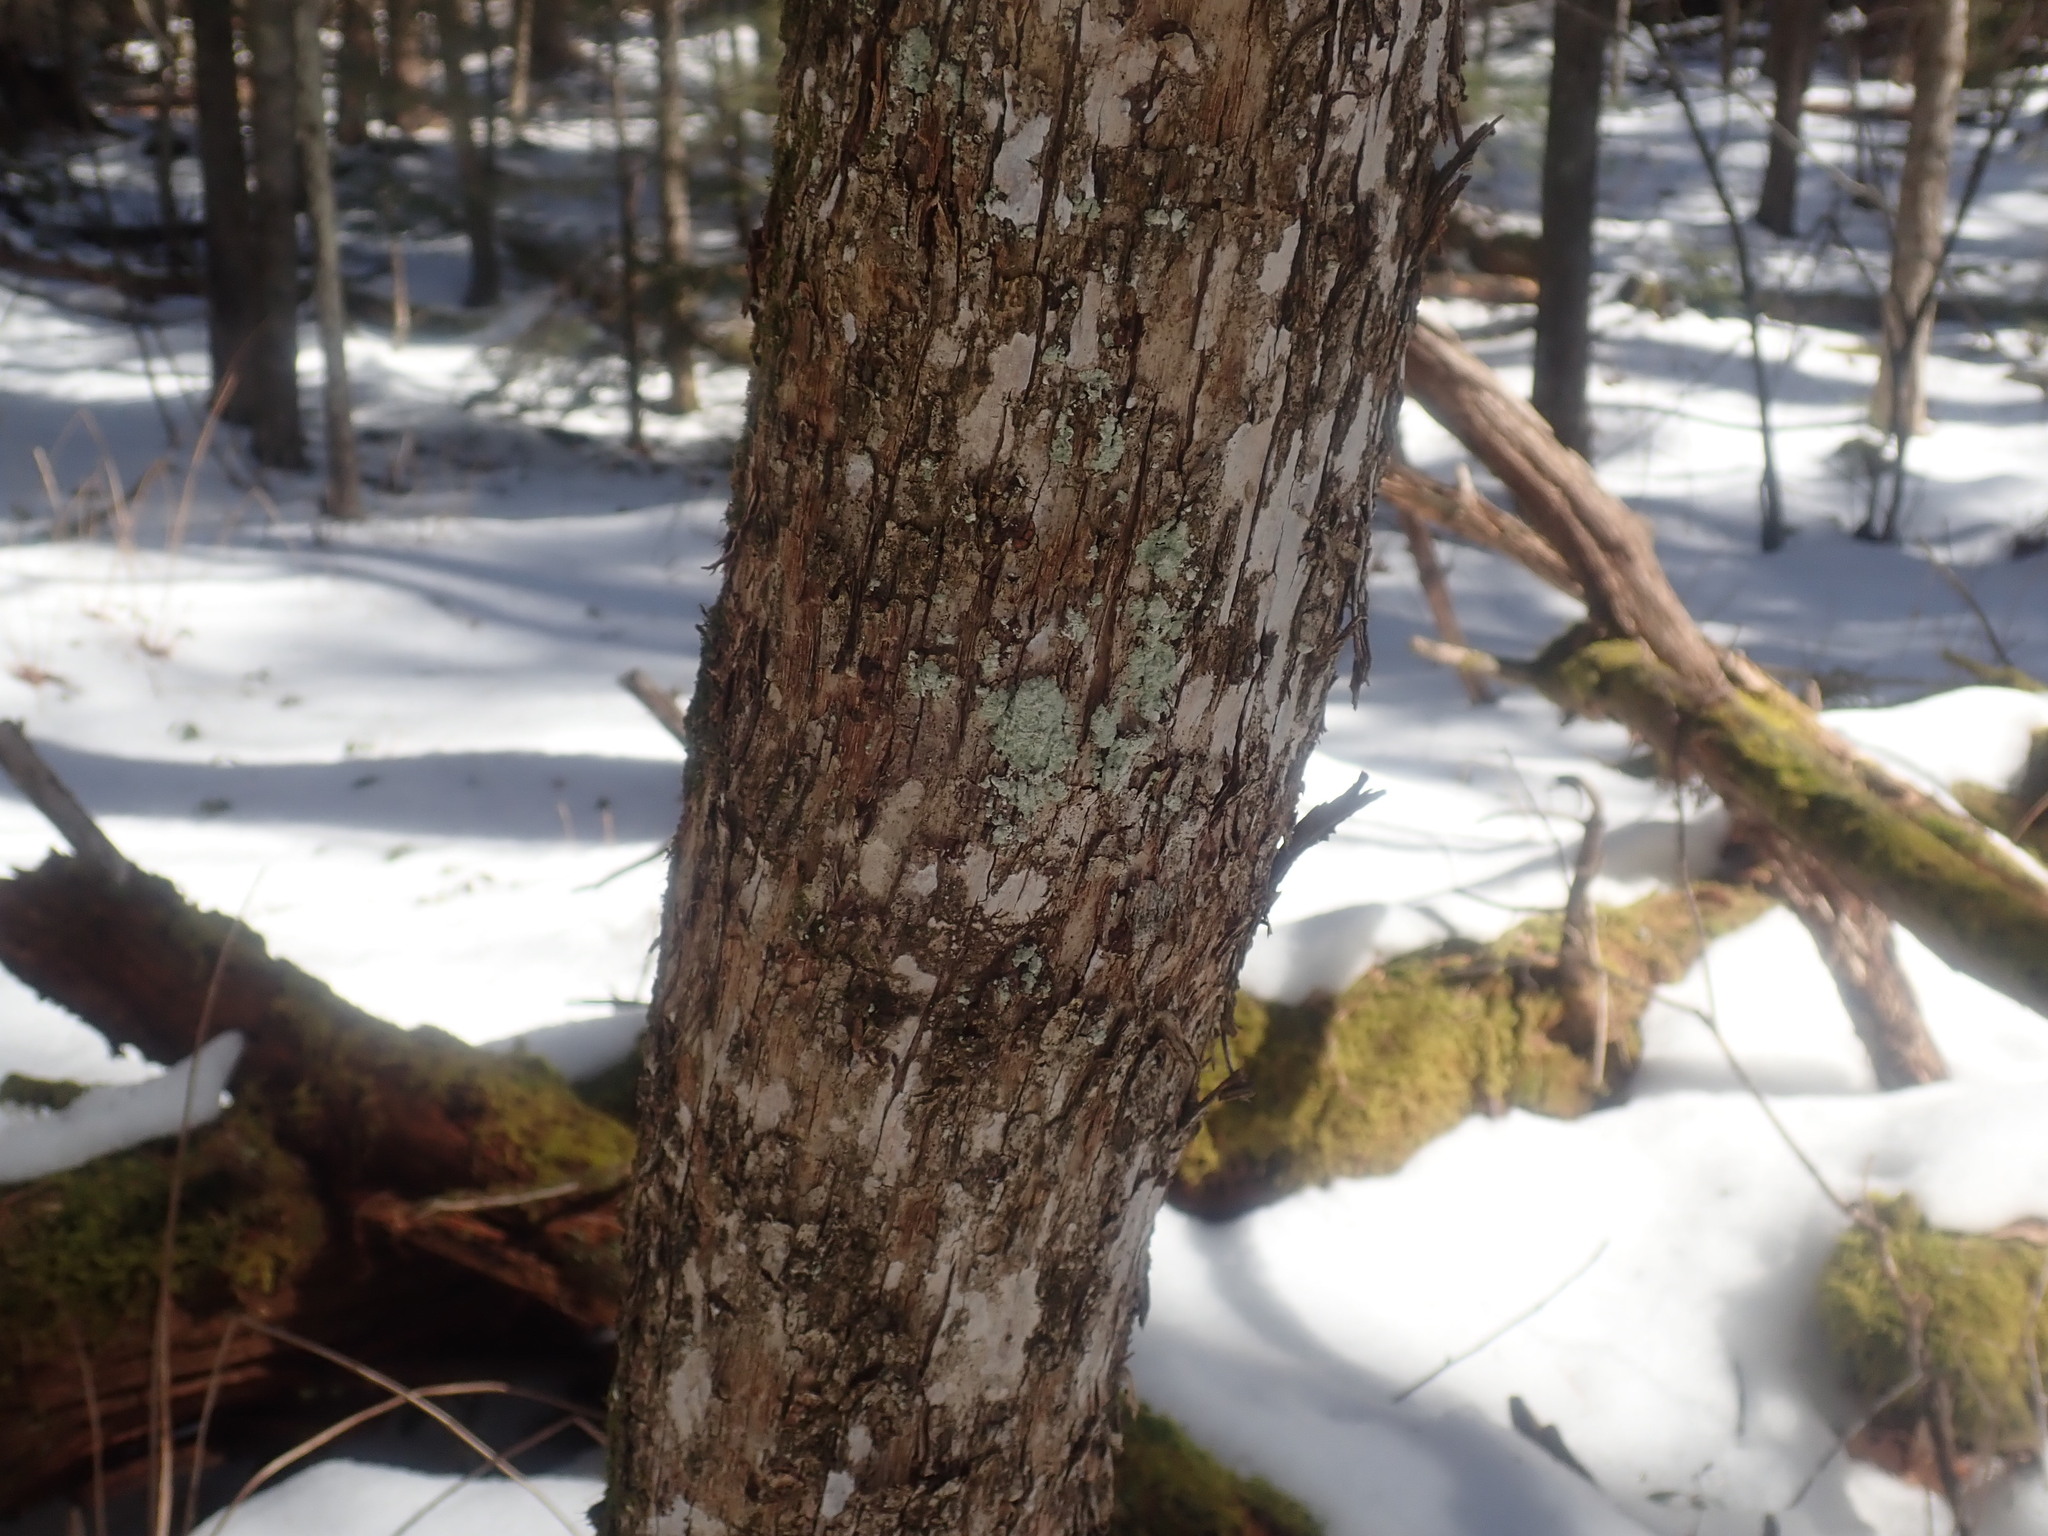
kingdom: Plantae
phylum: Tracheophyta
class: Magnoliopsida
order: Fagales
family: Betulaceae
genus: Ostrya
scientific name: Ostrya virginiana
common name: Ironwood
